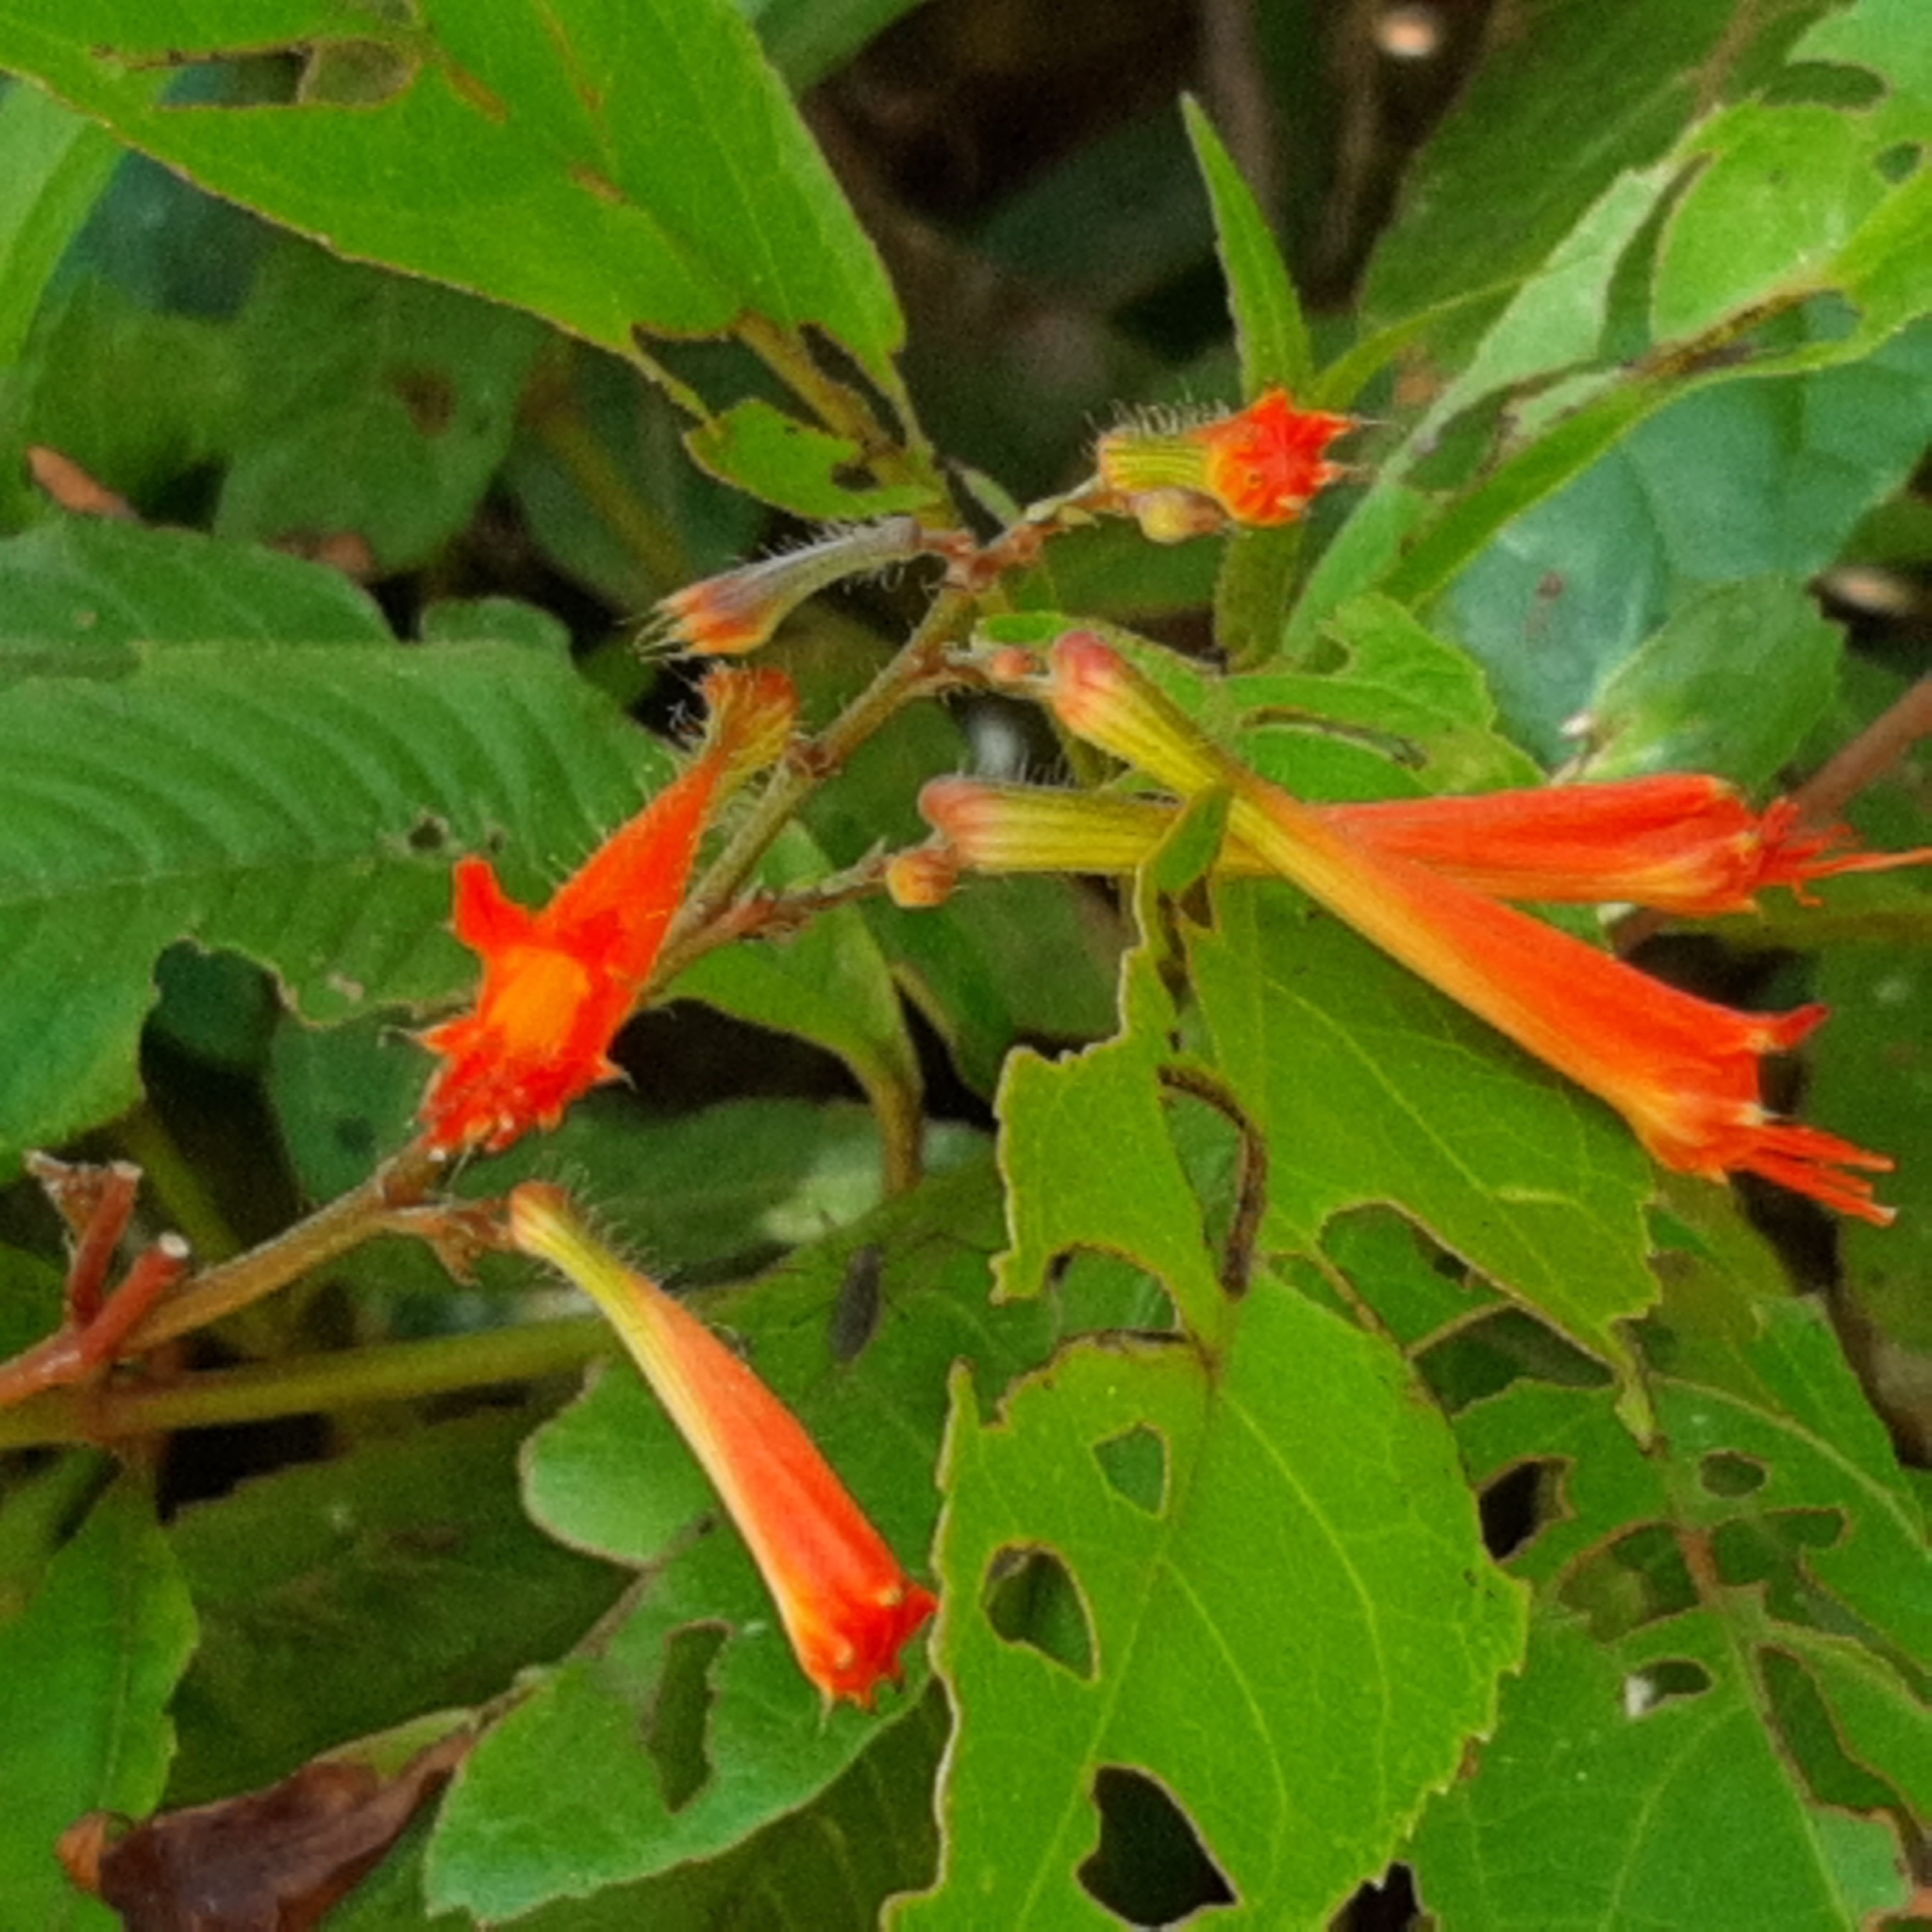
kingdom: Plantae
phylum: Tracheophyta
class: Magnoliopsida
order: Myrtales
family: Lythraceae
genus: Cuphea
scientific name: Cuphea appendiculata
